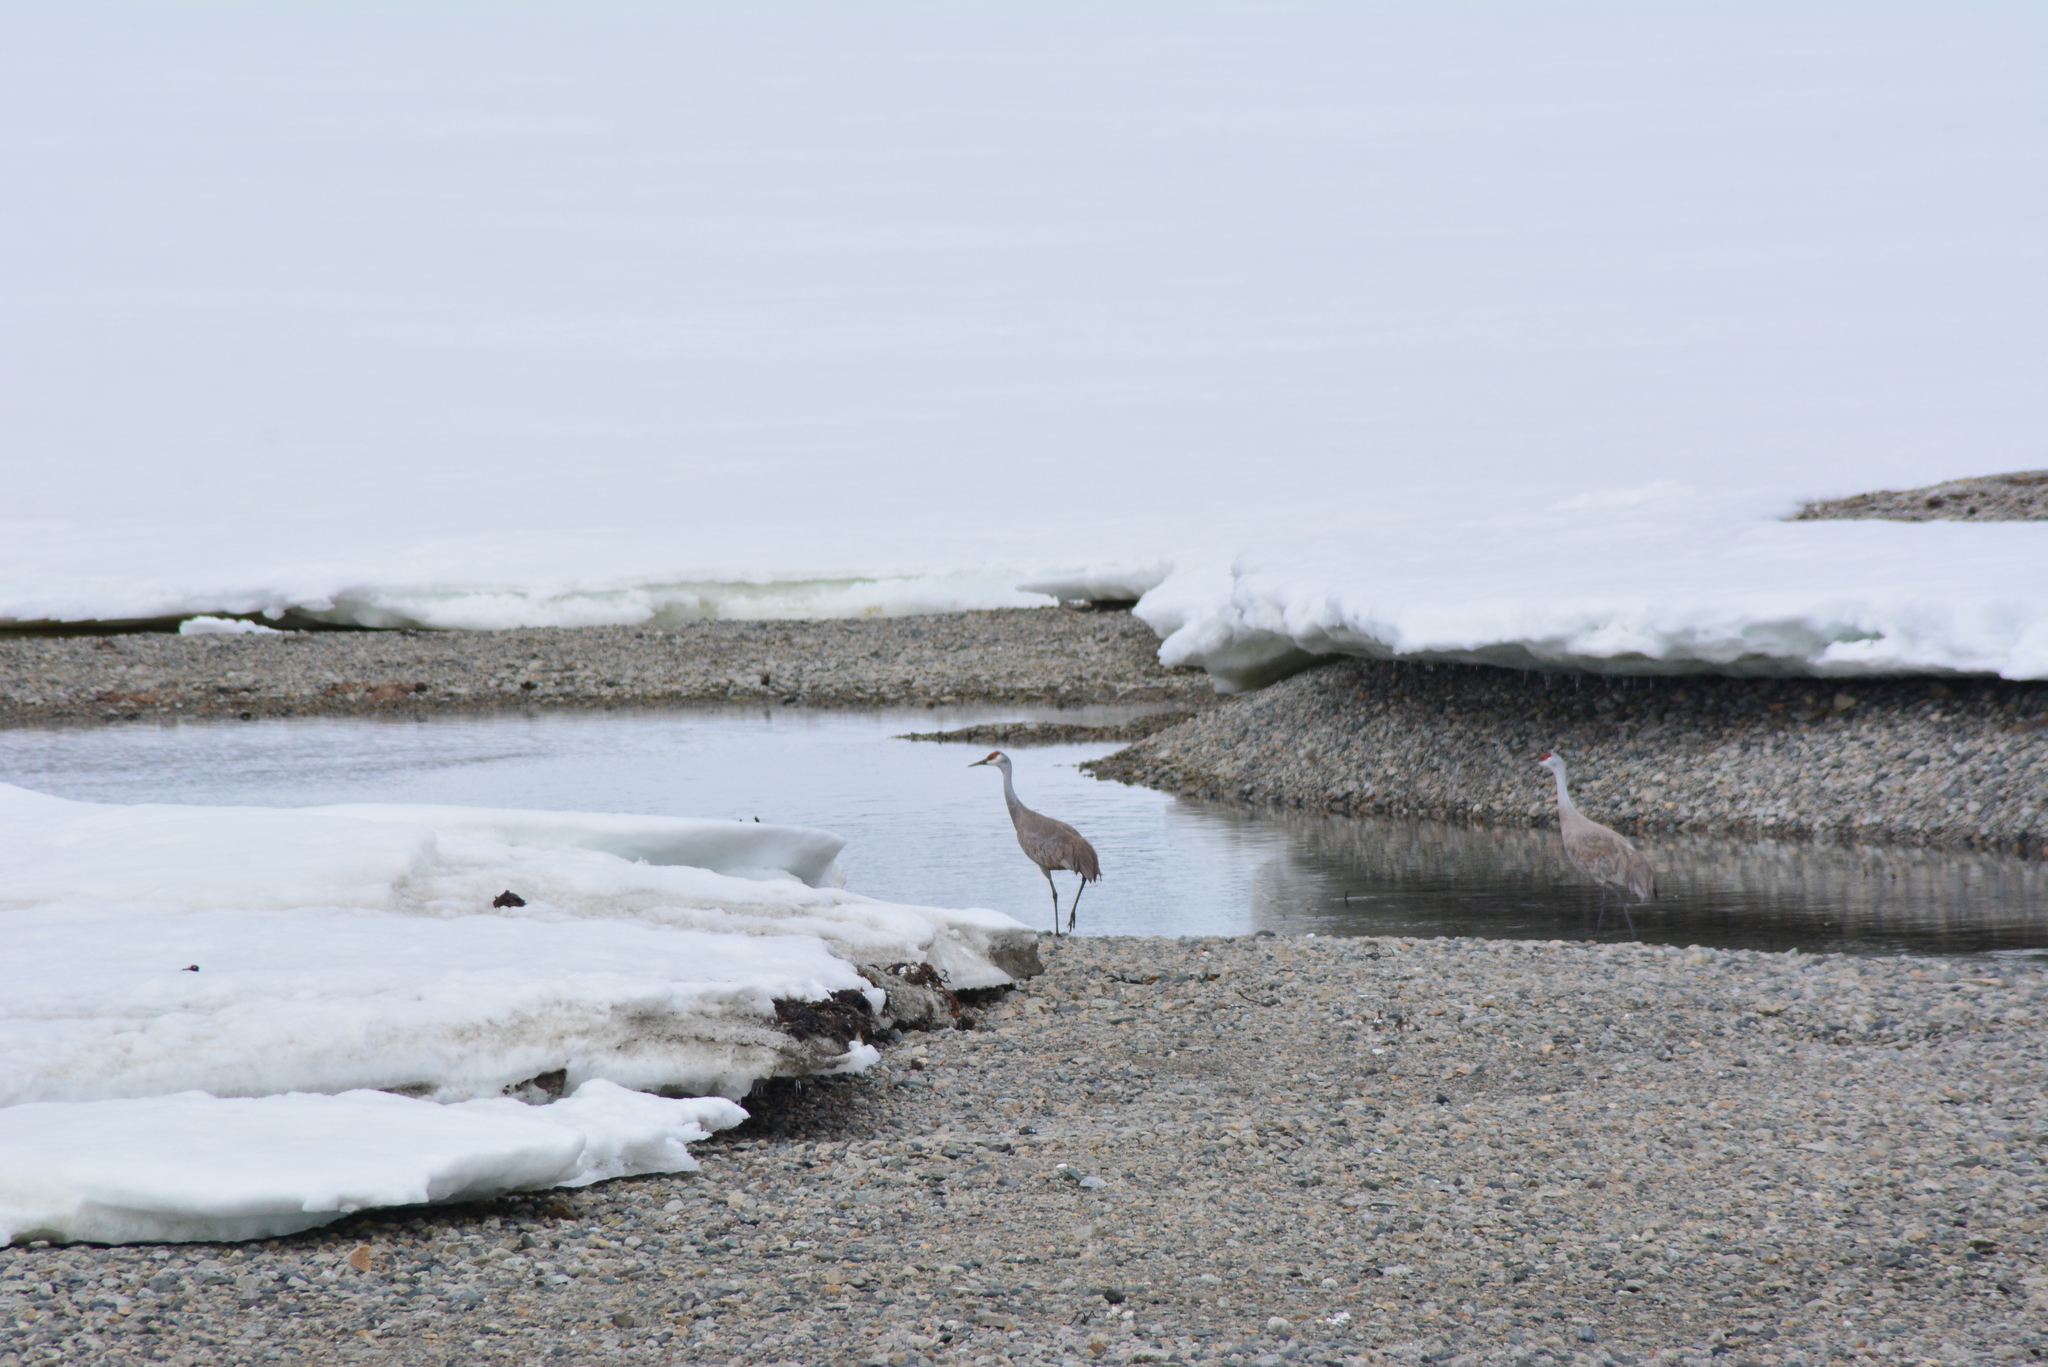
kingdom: Animalia
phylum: Chordata
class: Aves
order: Gruiformes
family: Gruidae
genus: Grus
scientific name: Grus canadensis
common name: Sandhill crane
